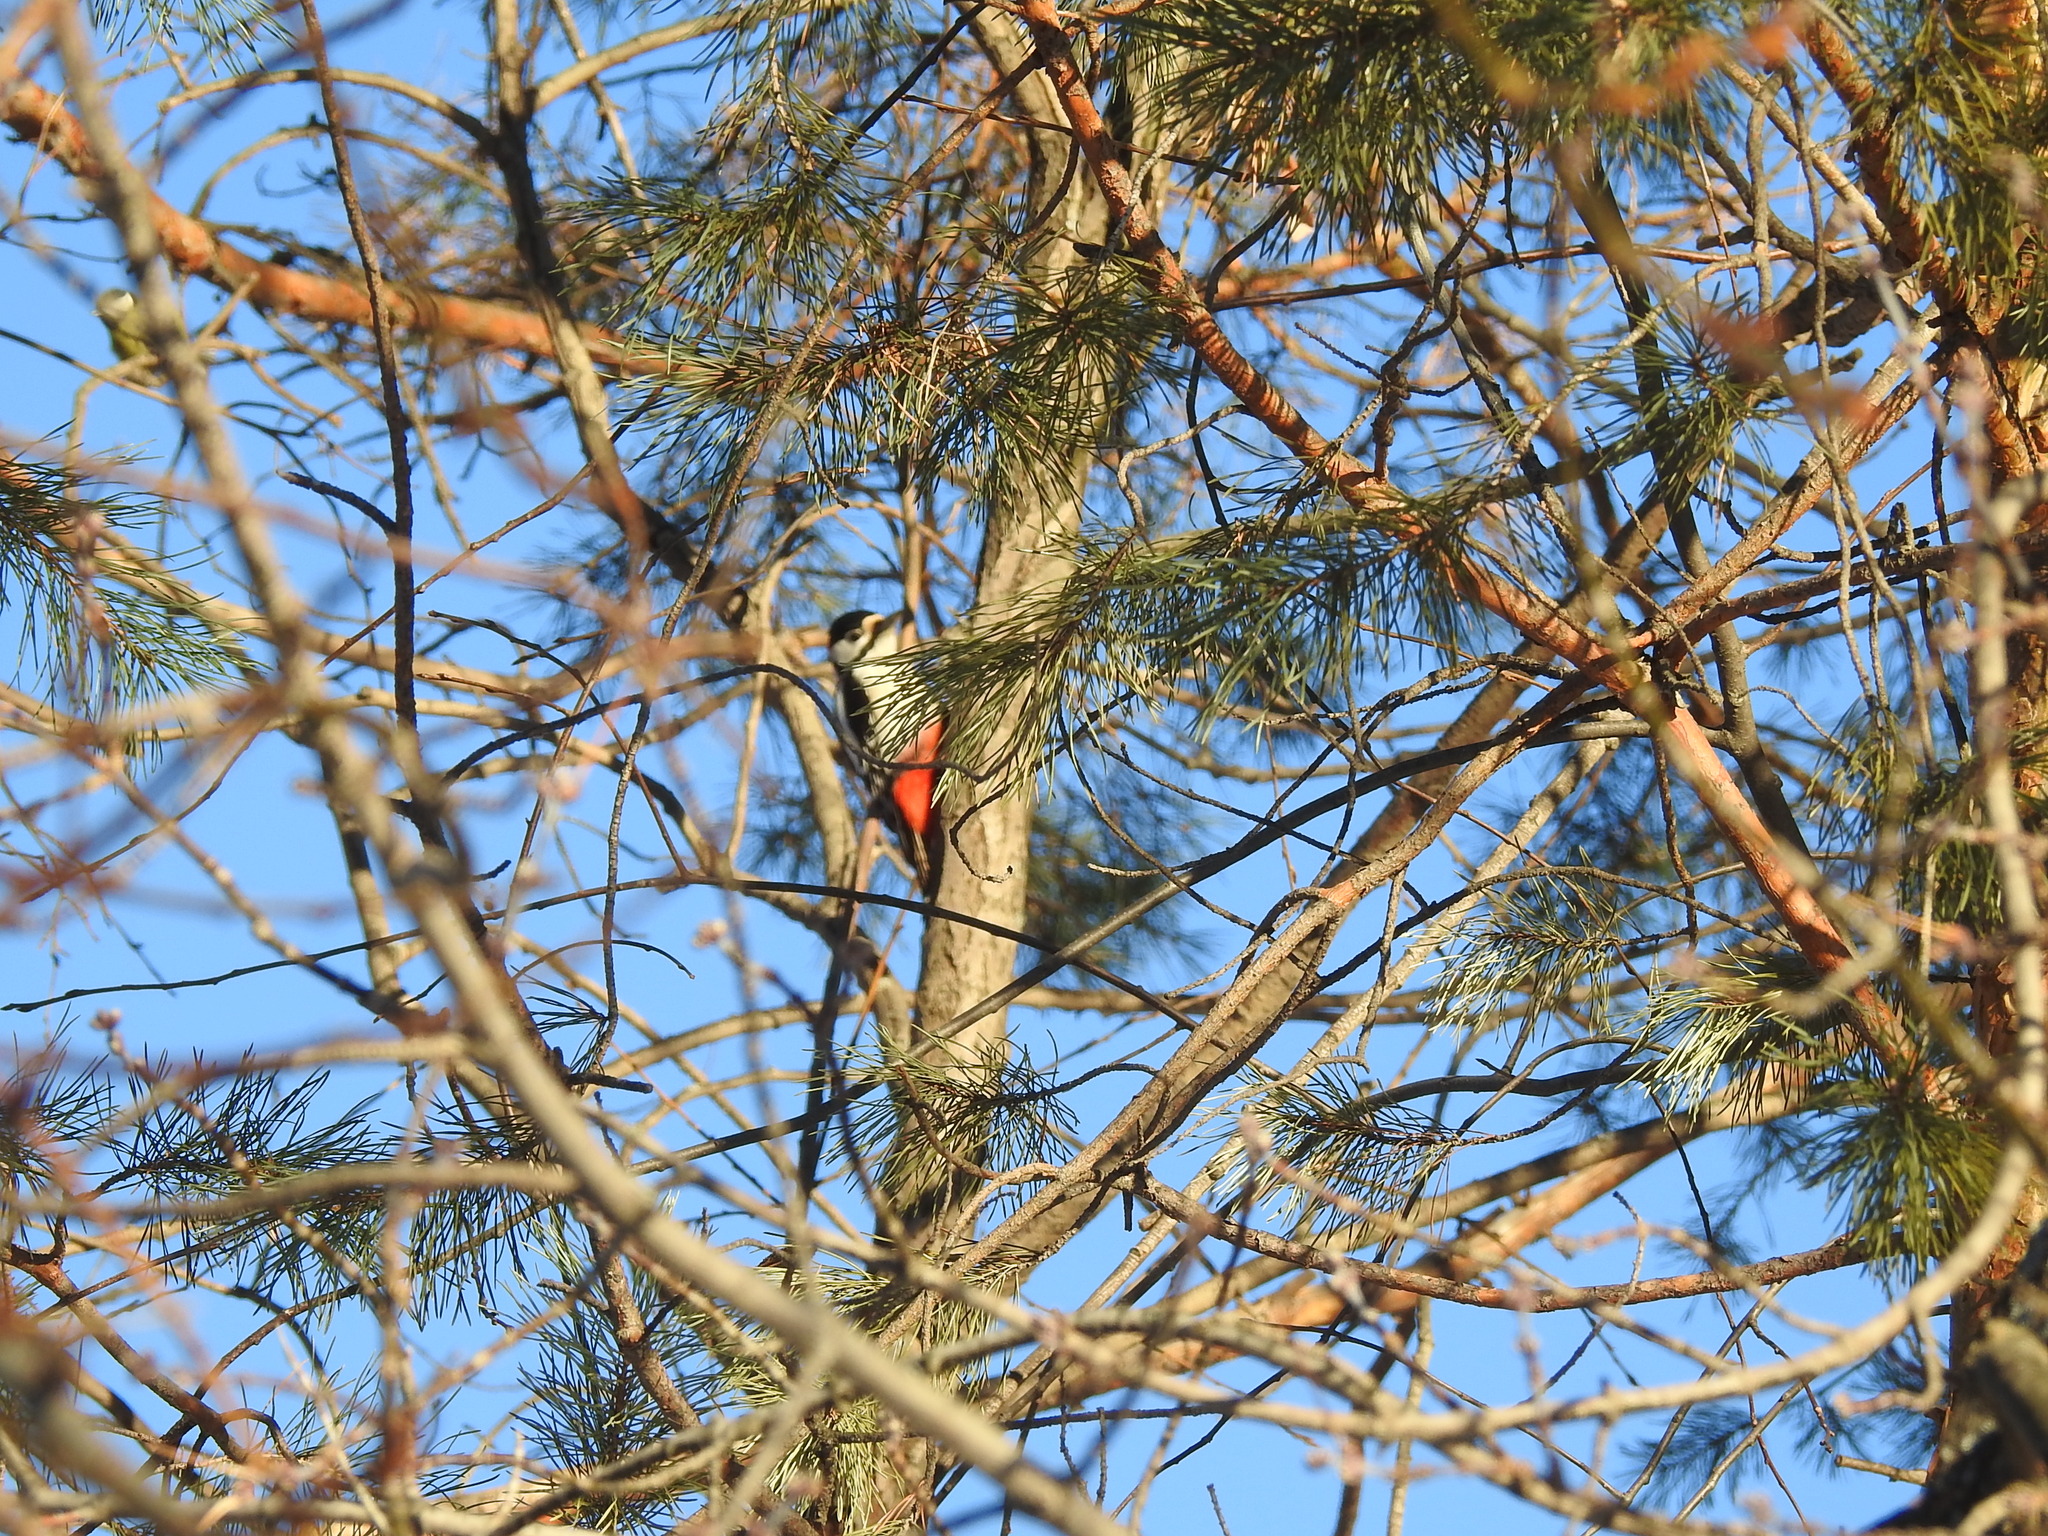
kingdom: Animalia
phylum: Chordata
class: Aves
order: Piciformes
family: Picidae
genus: Dendrocopos
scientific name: Dendrocopos major
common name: Great spotted woodpecker
